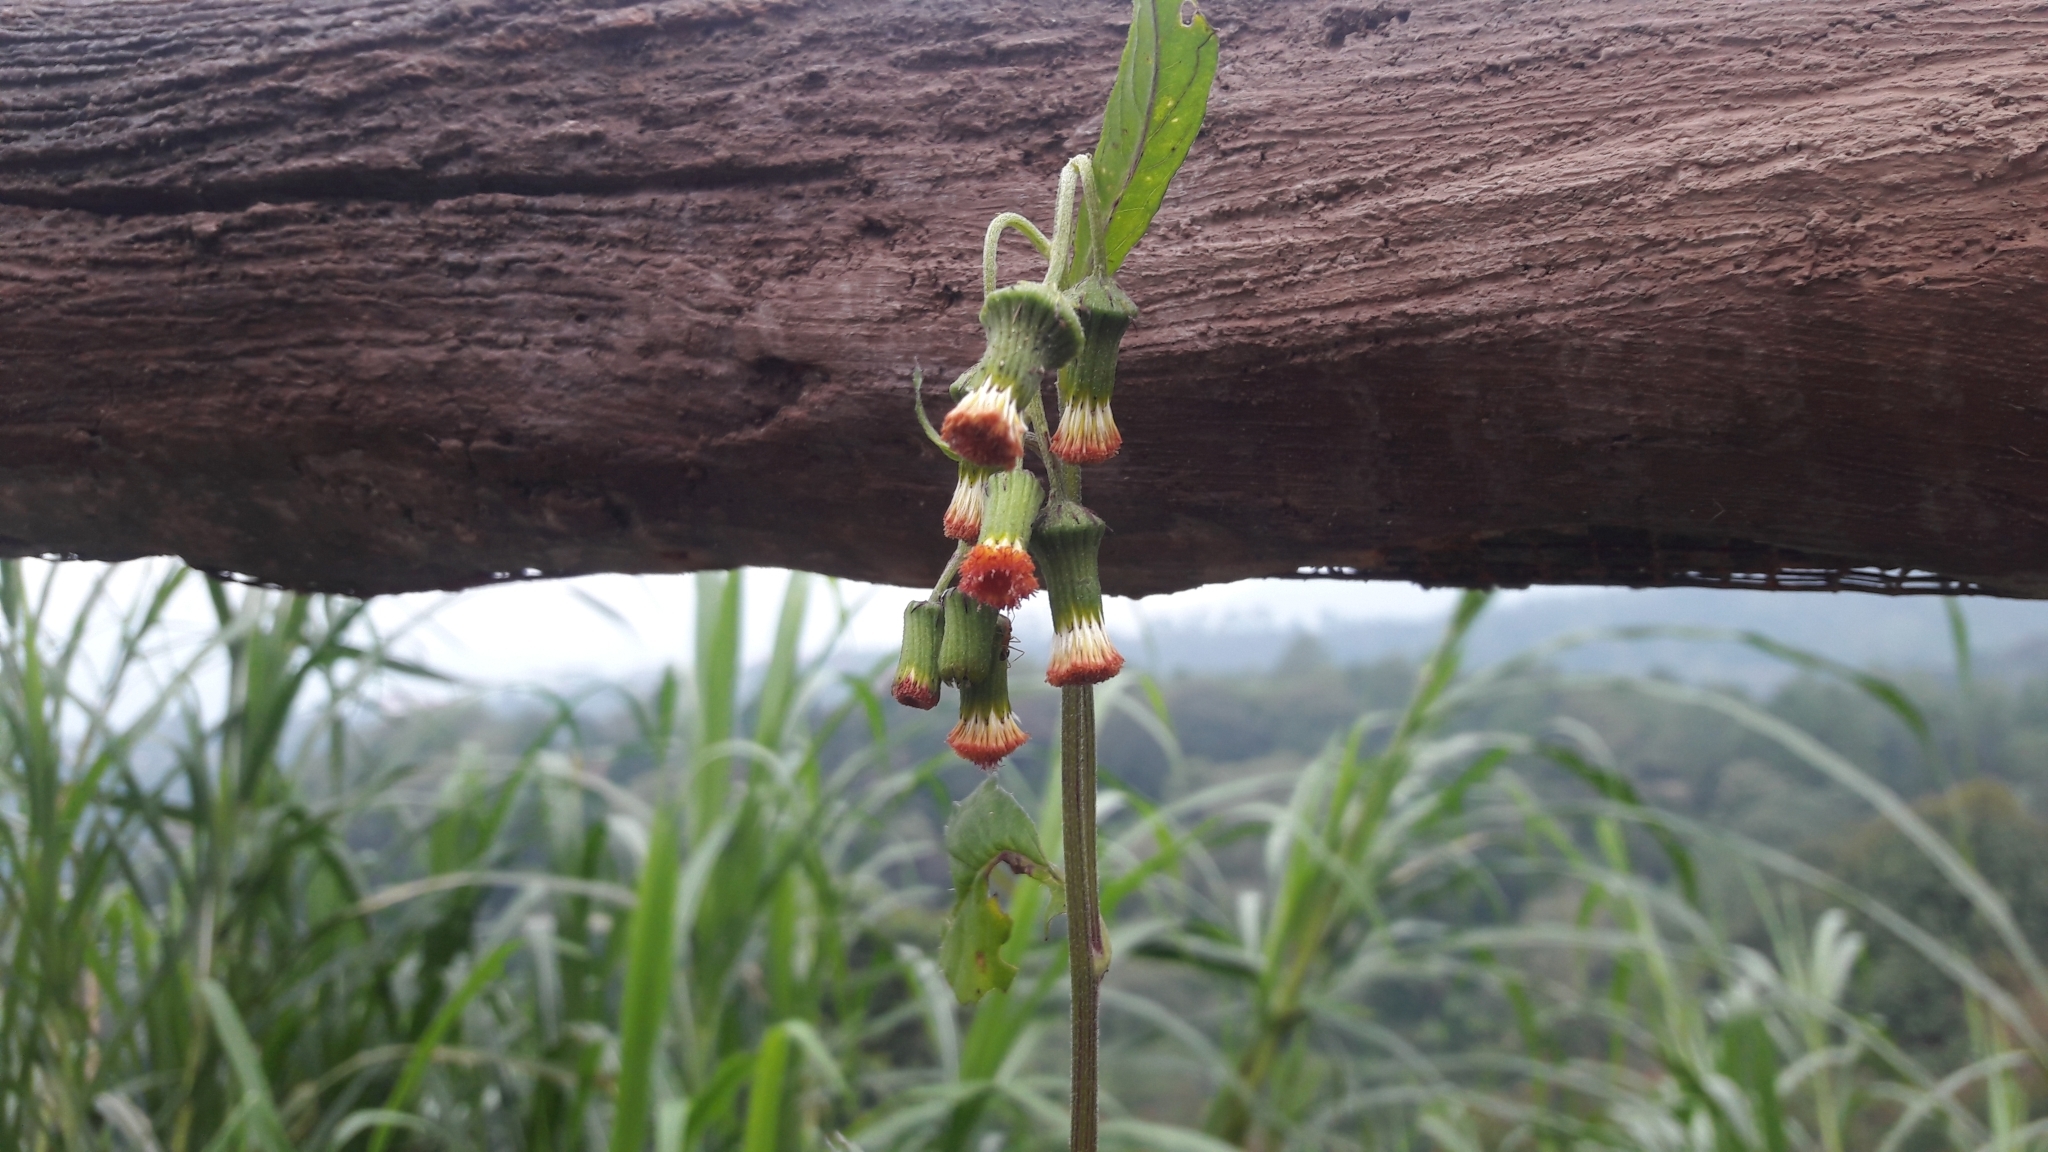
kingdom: Plantae
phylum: Tracheophyta
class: Magnoliopsida
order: Asterales
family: Asteraceae
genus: Crassocephalum
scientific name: Crassocephalum crepidioides
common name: Redflower ragleaf
